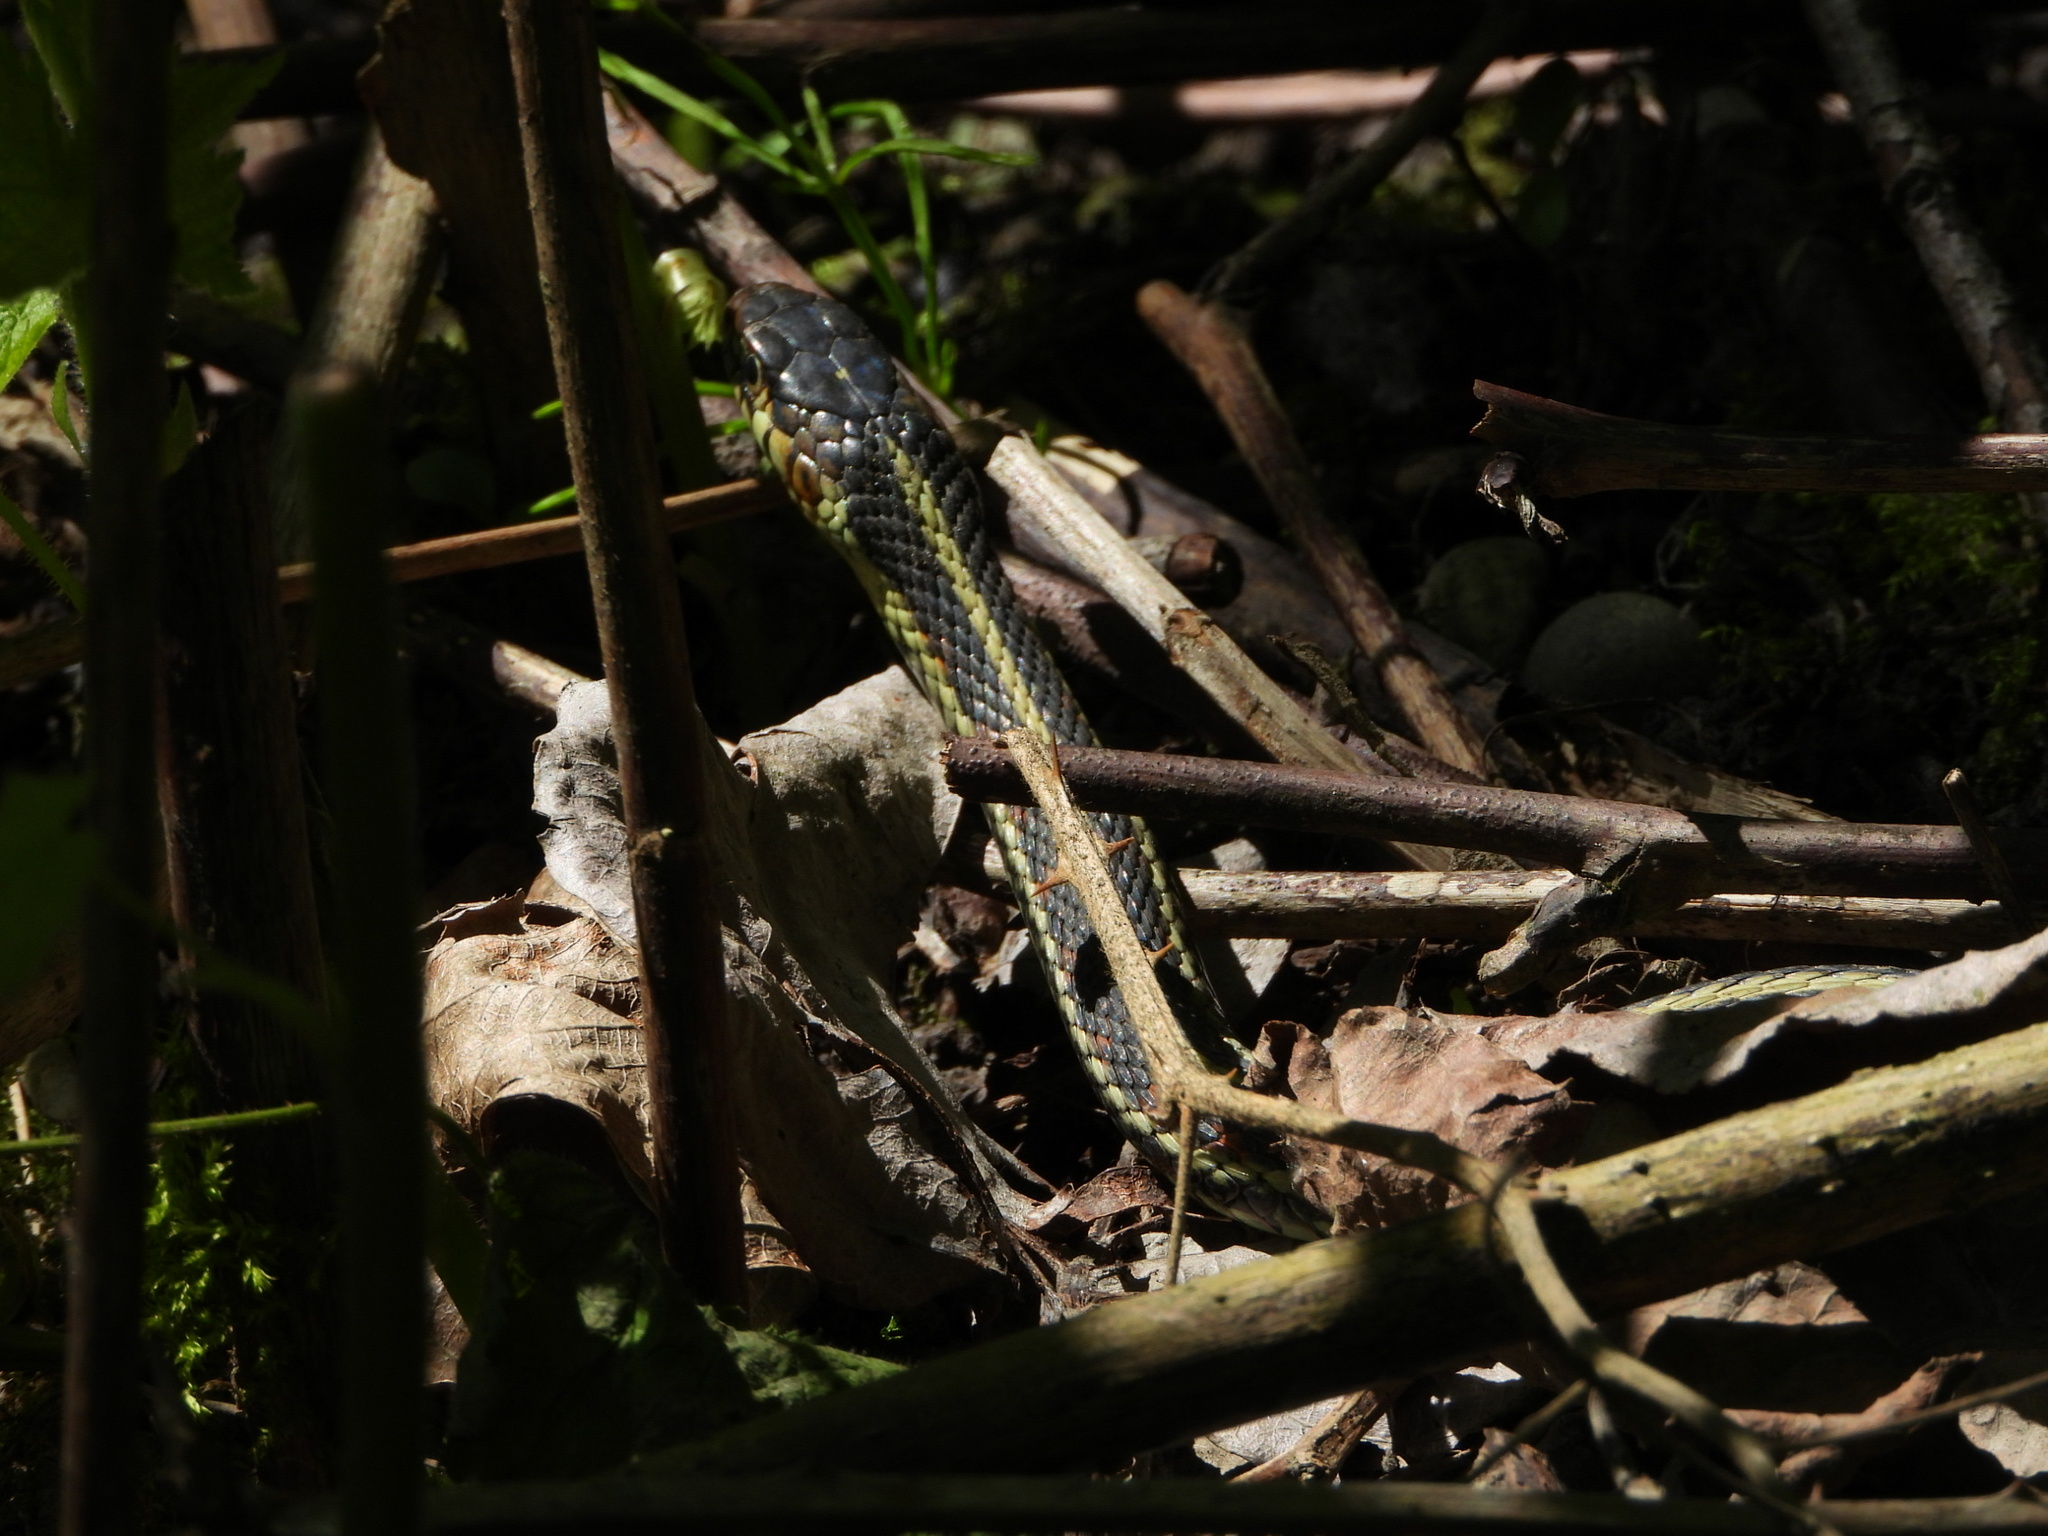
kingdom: Animalia
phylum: Chordata
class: Squamata
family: Colubridae
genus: Thamnophis
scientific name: Thamnophis sirtalis
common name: Common garter snake
